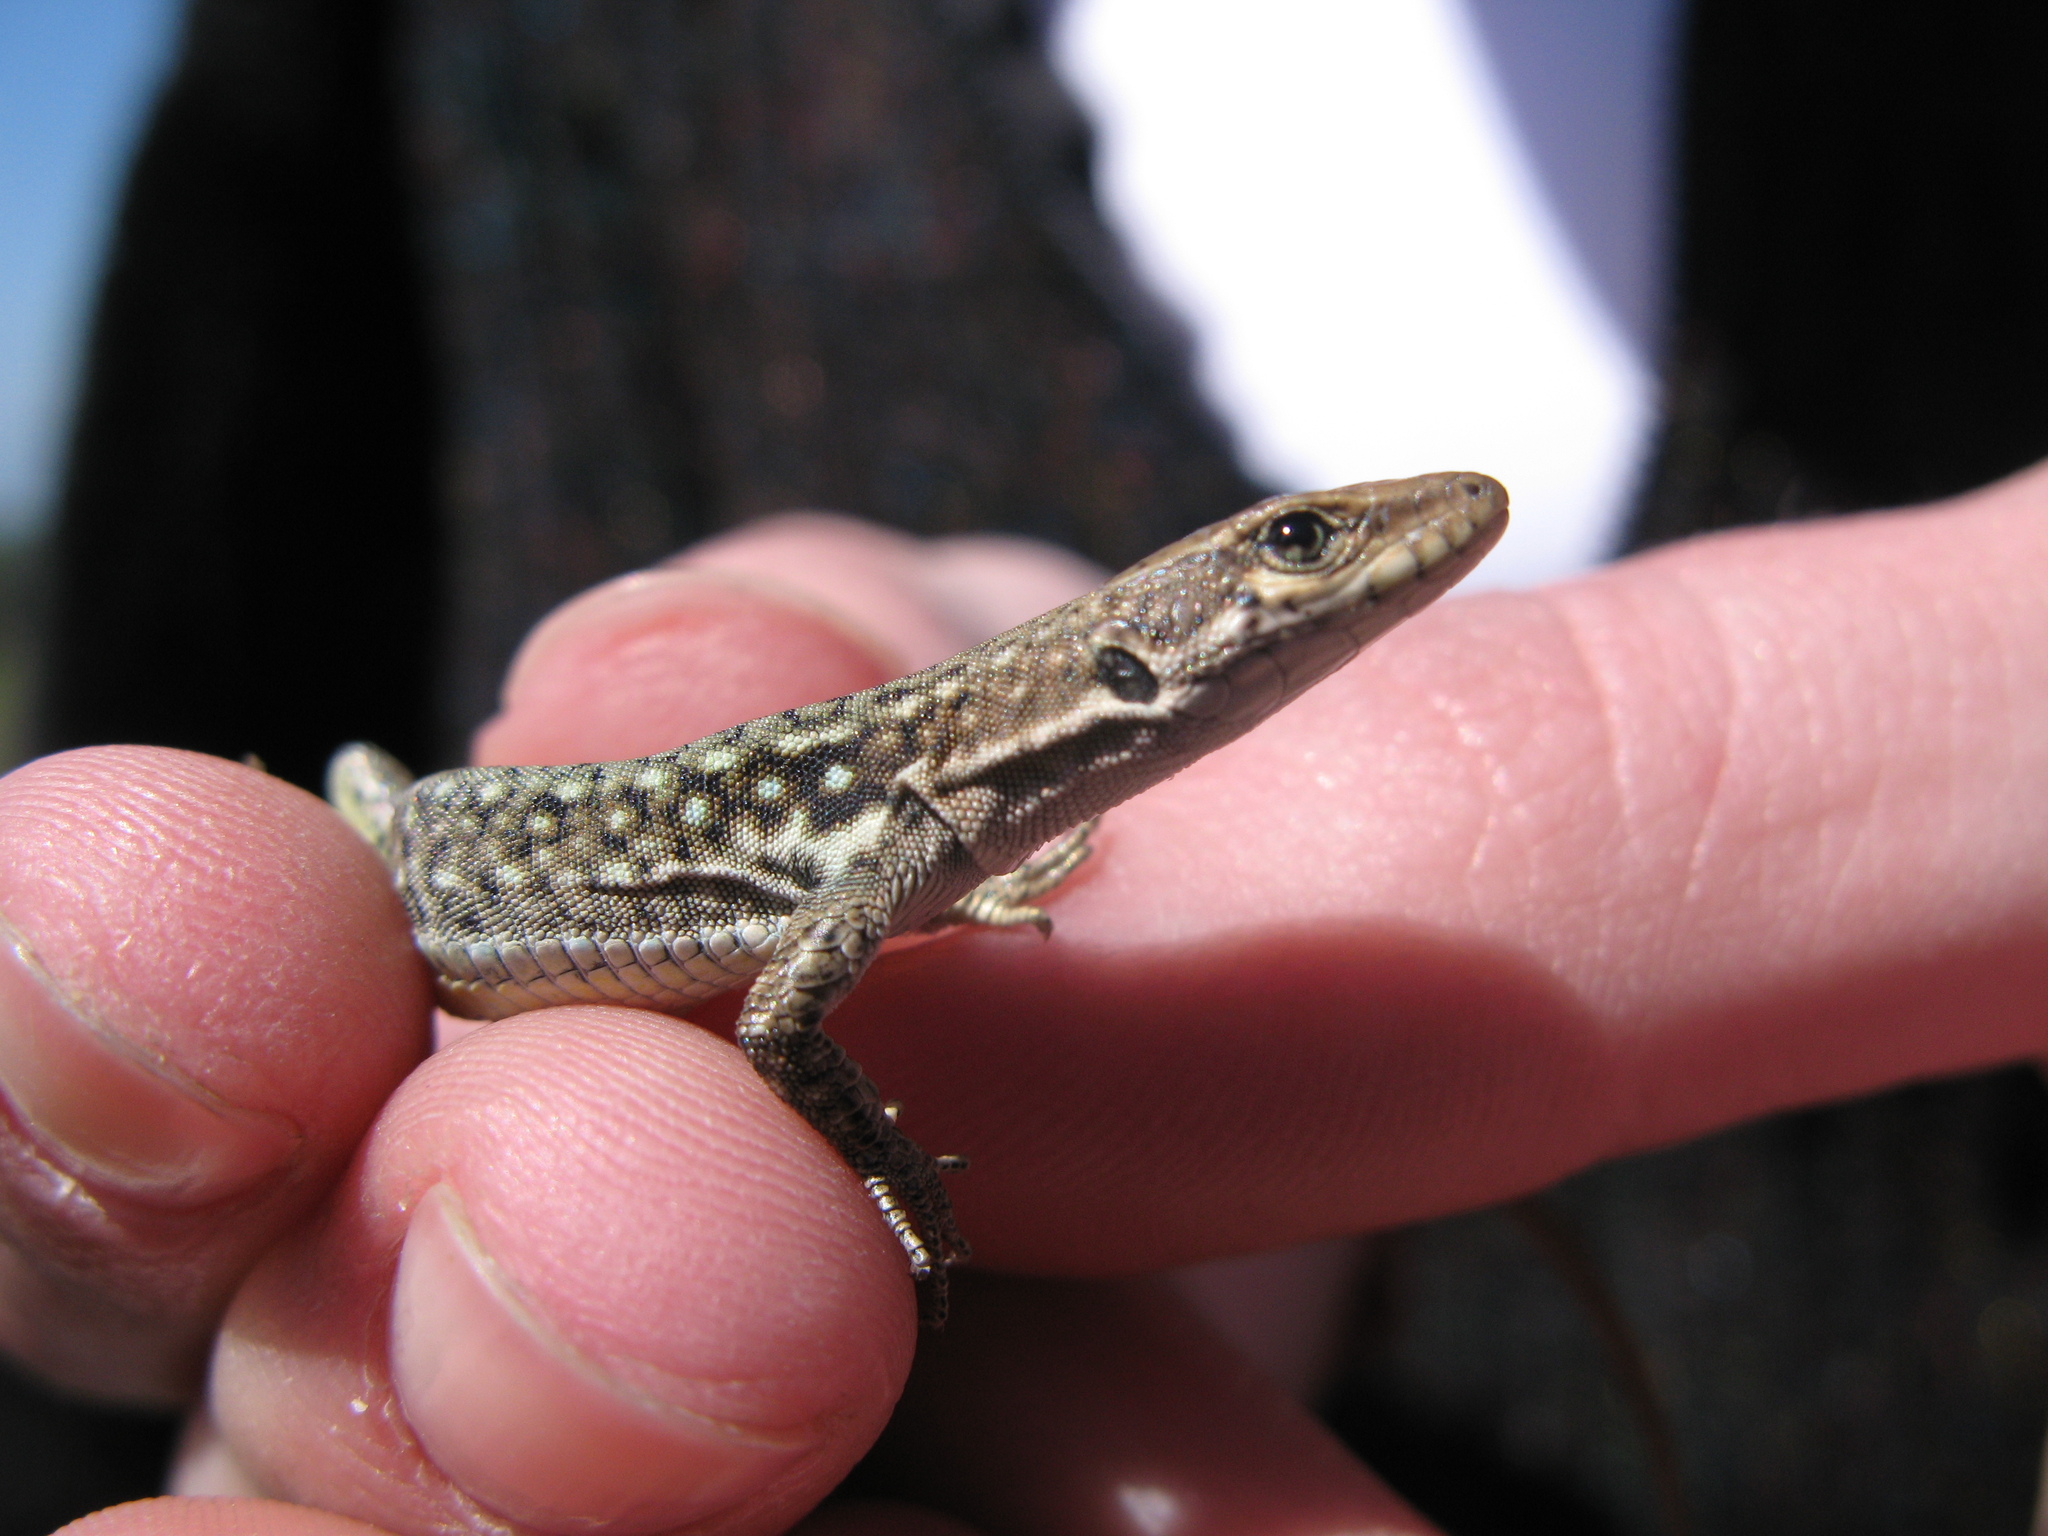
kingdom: Animalia
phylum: Chordata
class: Squamata
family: Lacertidae
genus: Darevskia
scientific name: Darevskia lindholmi
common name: Crimean rock lizard
